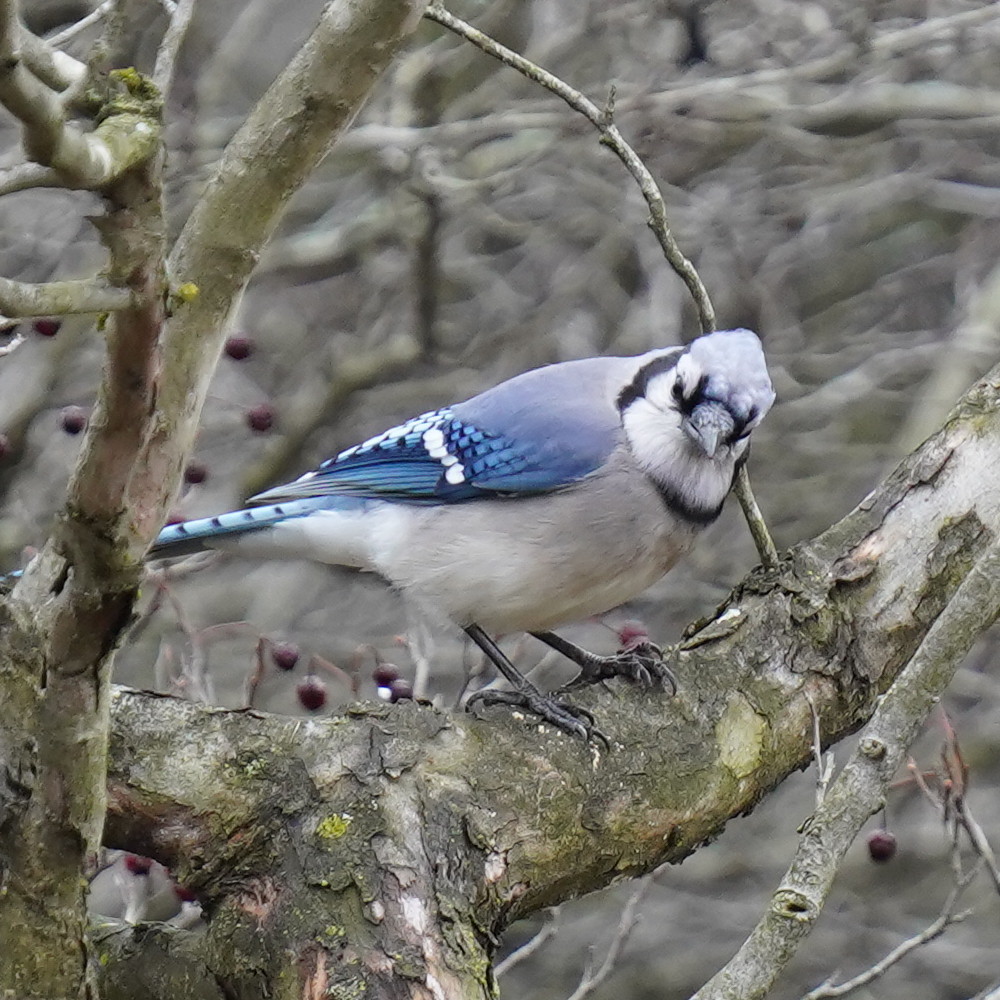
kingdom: Animalia
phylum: Chordata
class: Aves
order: Passeriformes
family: Corvidae
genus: Cyanocitta
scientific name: Cyanocitta cristata
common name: Blue jay
